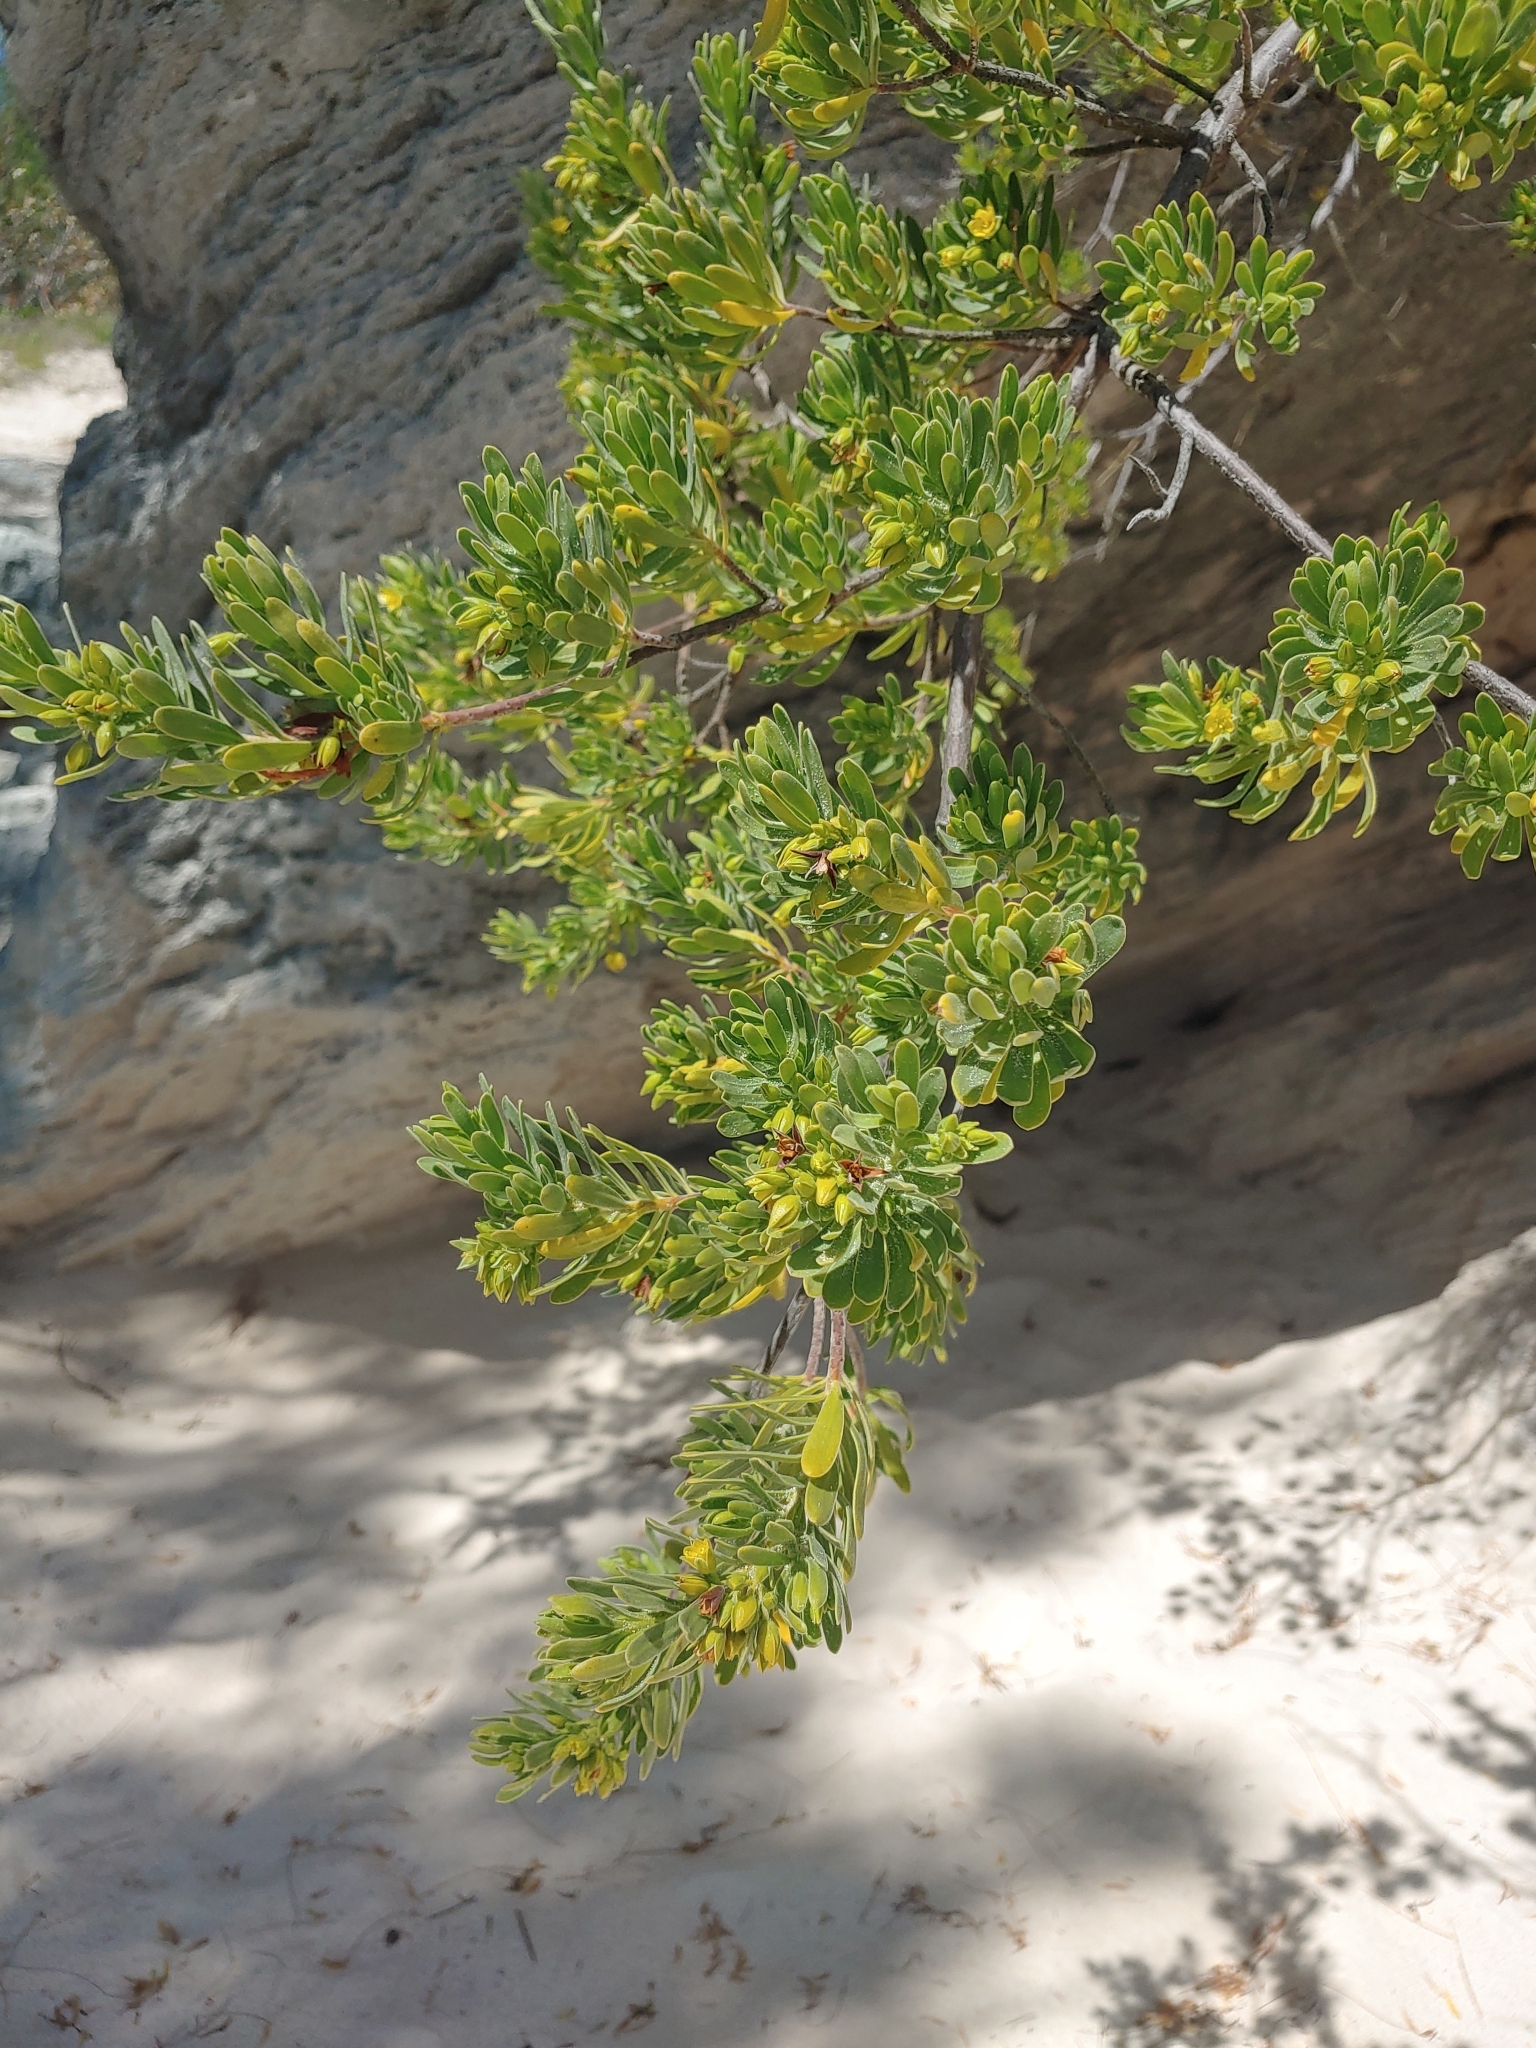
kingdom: Plantae
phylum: Tracheophyta
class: Magnoliopsida
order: Fabales
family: Surianaceae
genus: Suriana
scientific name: Suriana maritima
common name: Bay-cedar
